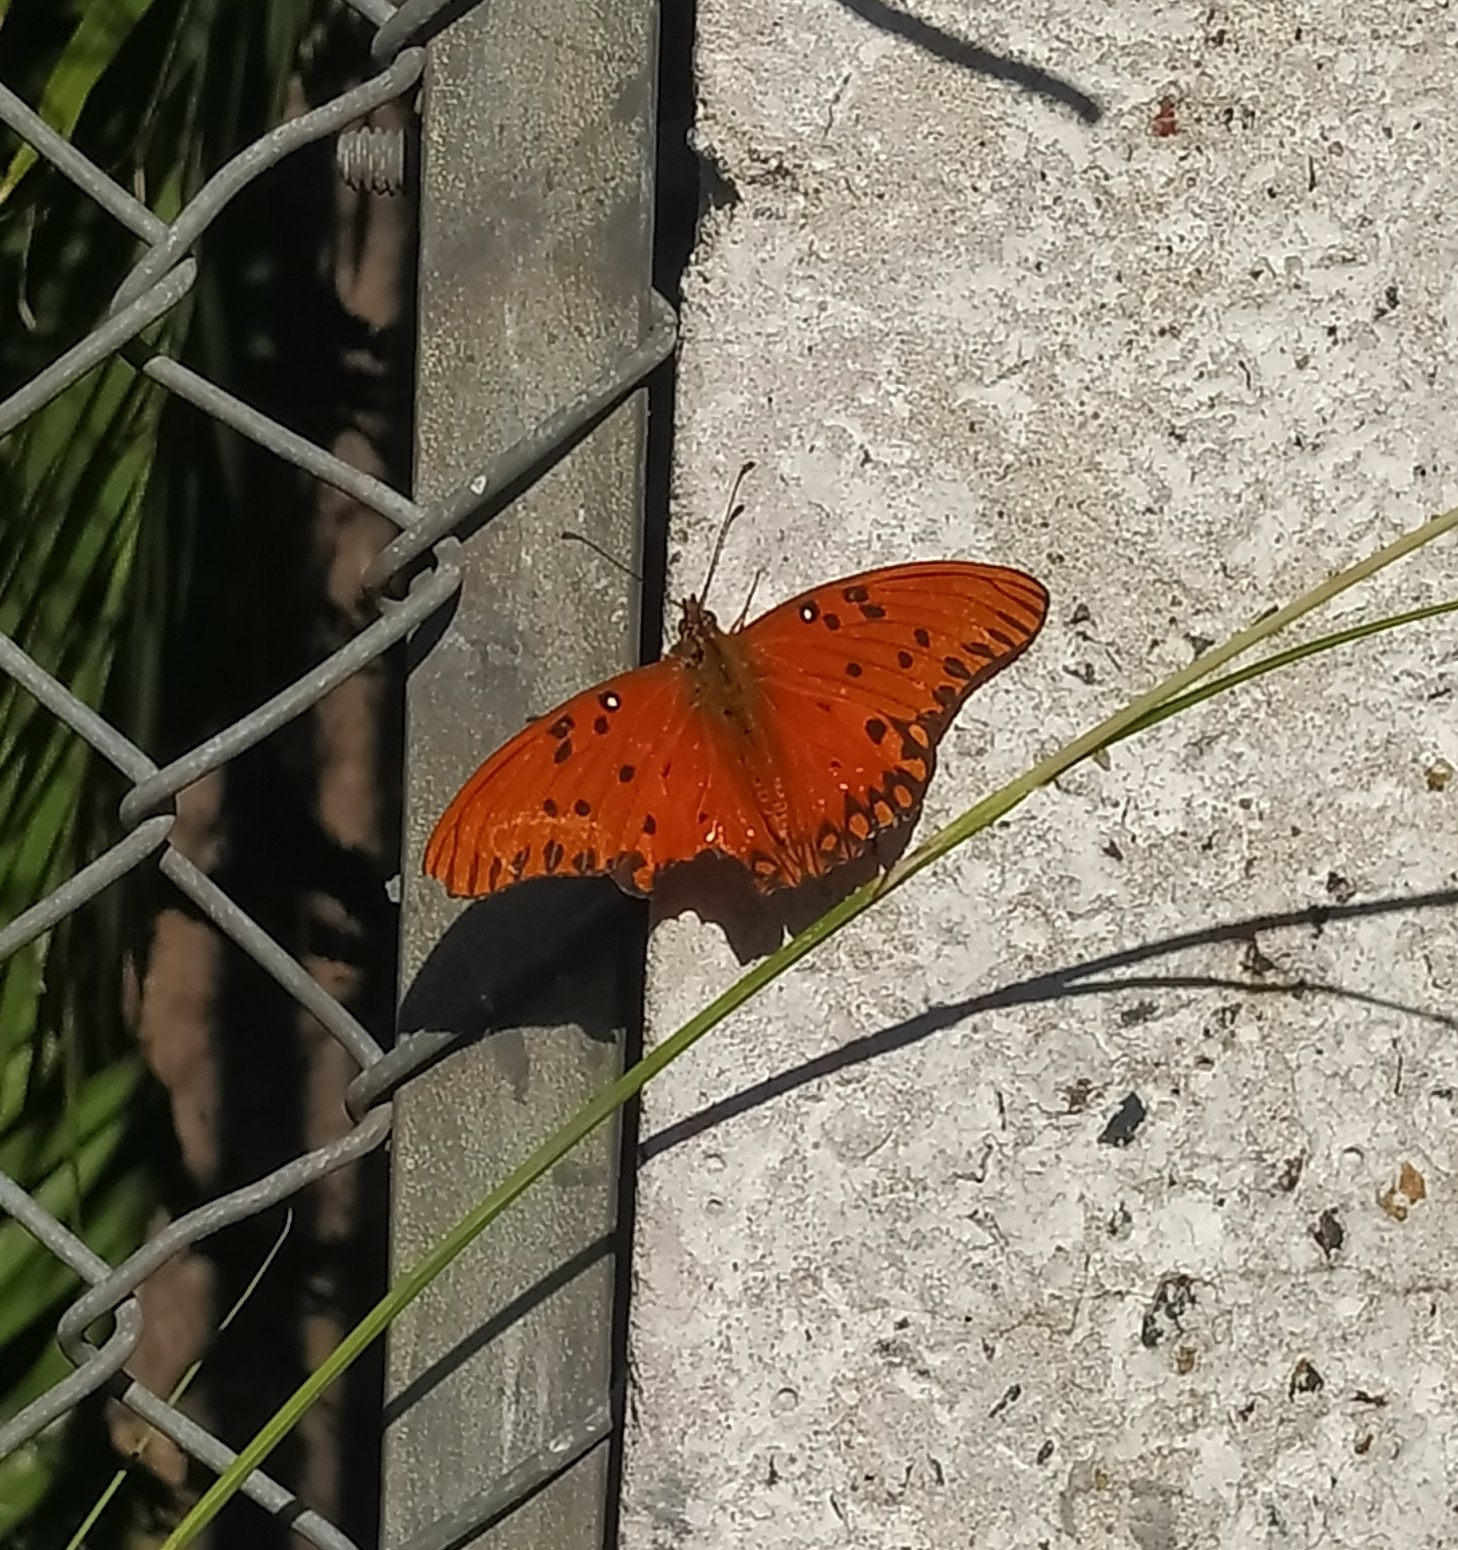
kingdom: Animalia
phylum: Arthropoda
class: Insecta
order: Lepidoptera
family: Nymphalidae
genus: Dione
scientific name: Dione vanillae
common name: Gulf fritillary
